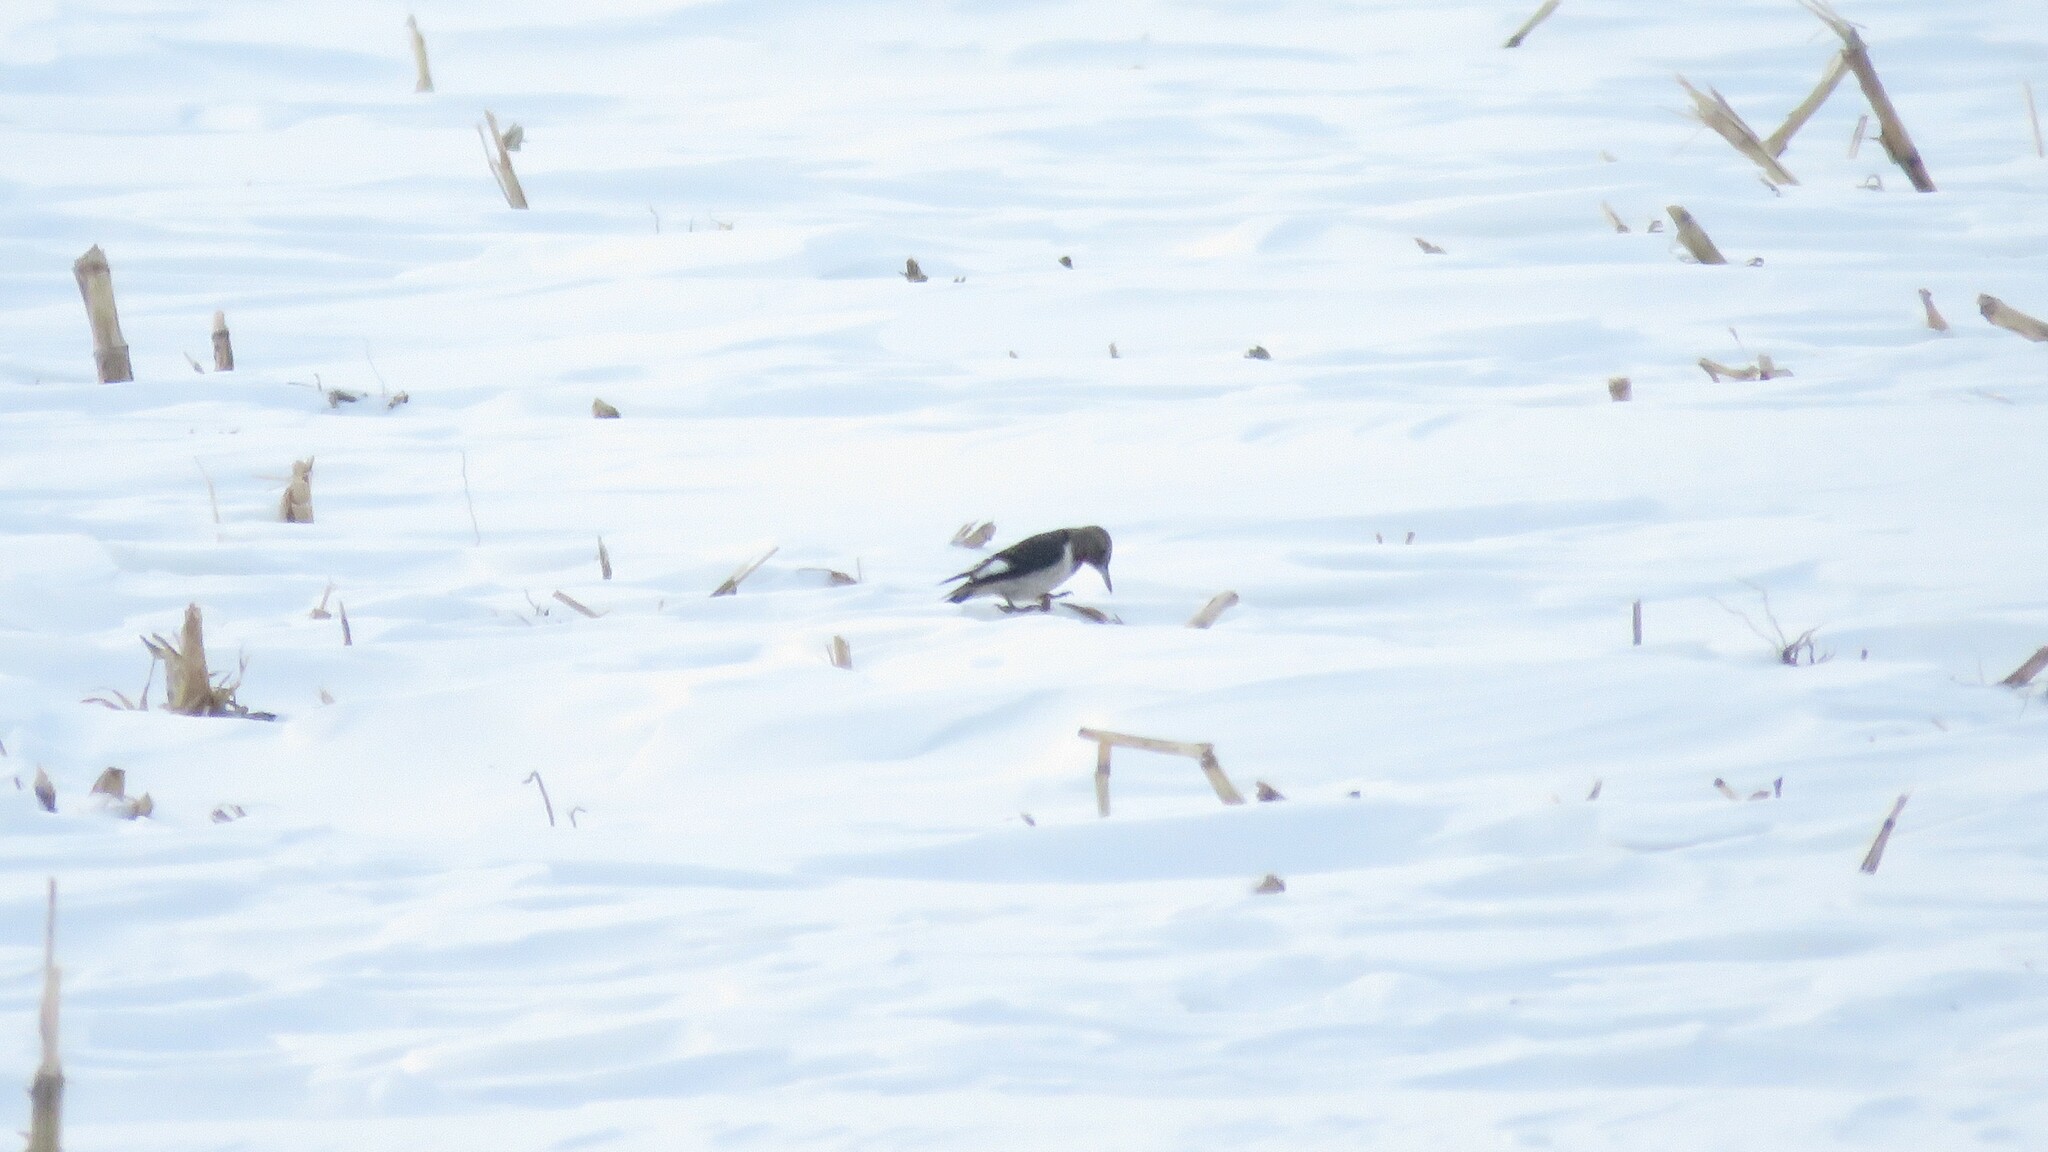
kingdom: Animalia
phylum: Chordata
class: Aves
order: Piciformes
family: Picidae
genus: Melanerpes
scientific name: Melanerpes erythrocephalus
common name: Red-headed woodpecker
